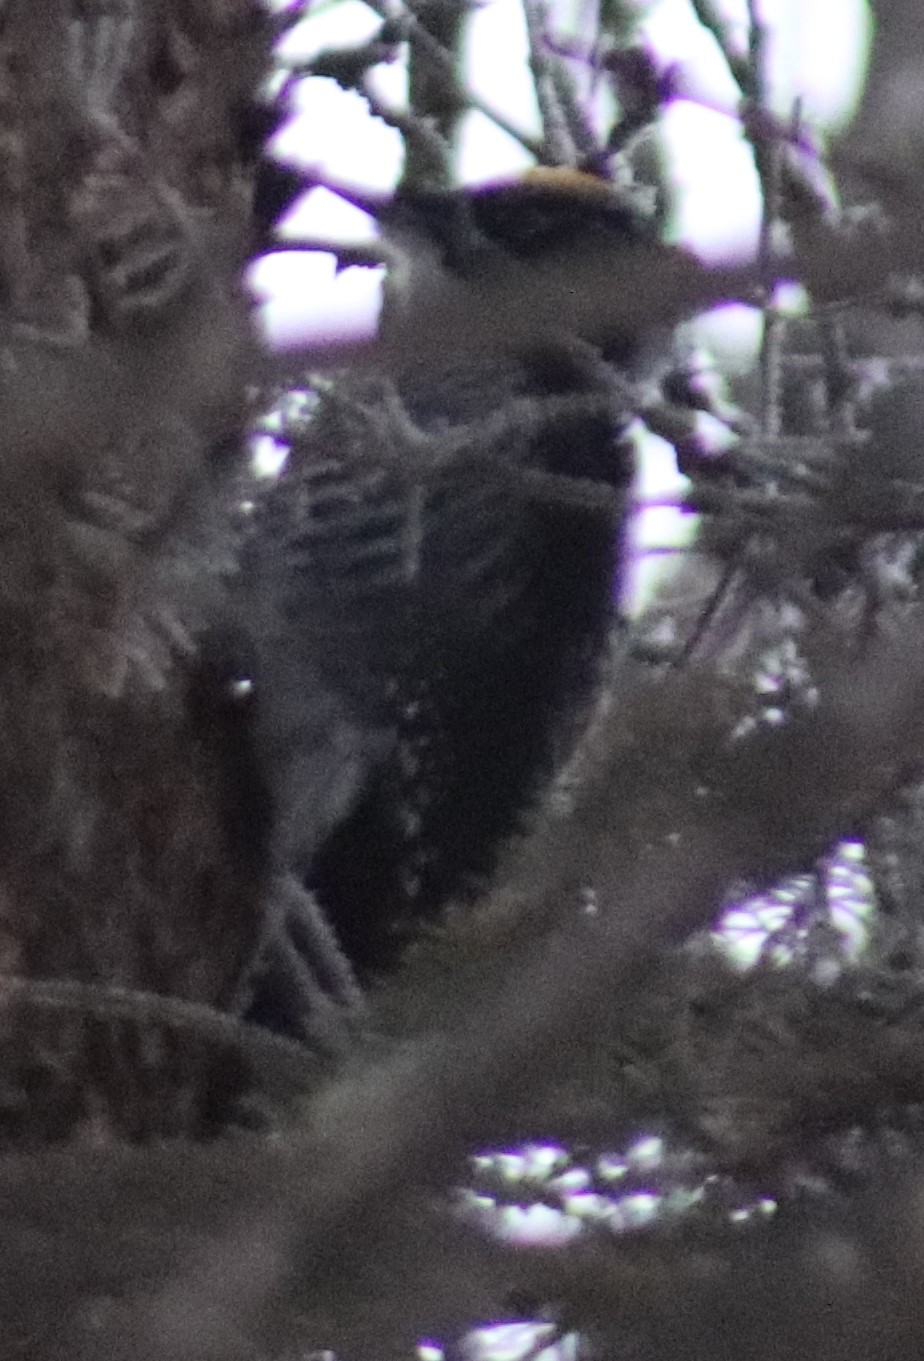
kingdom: Animalia
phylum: Chordata
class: Aves
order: Piciformes
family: Picidae
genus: Picoides
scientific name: Picoides dorsalis
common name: American three-toed woodpecker
